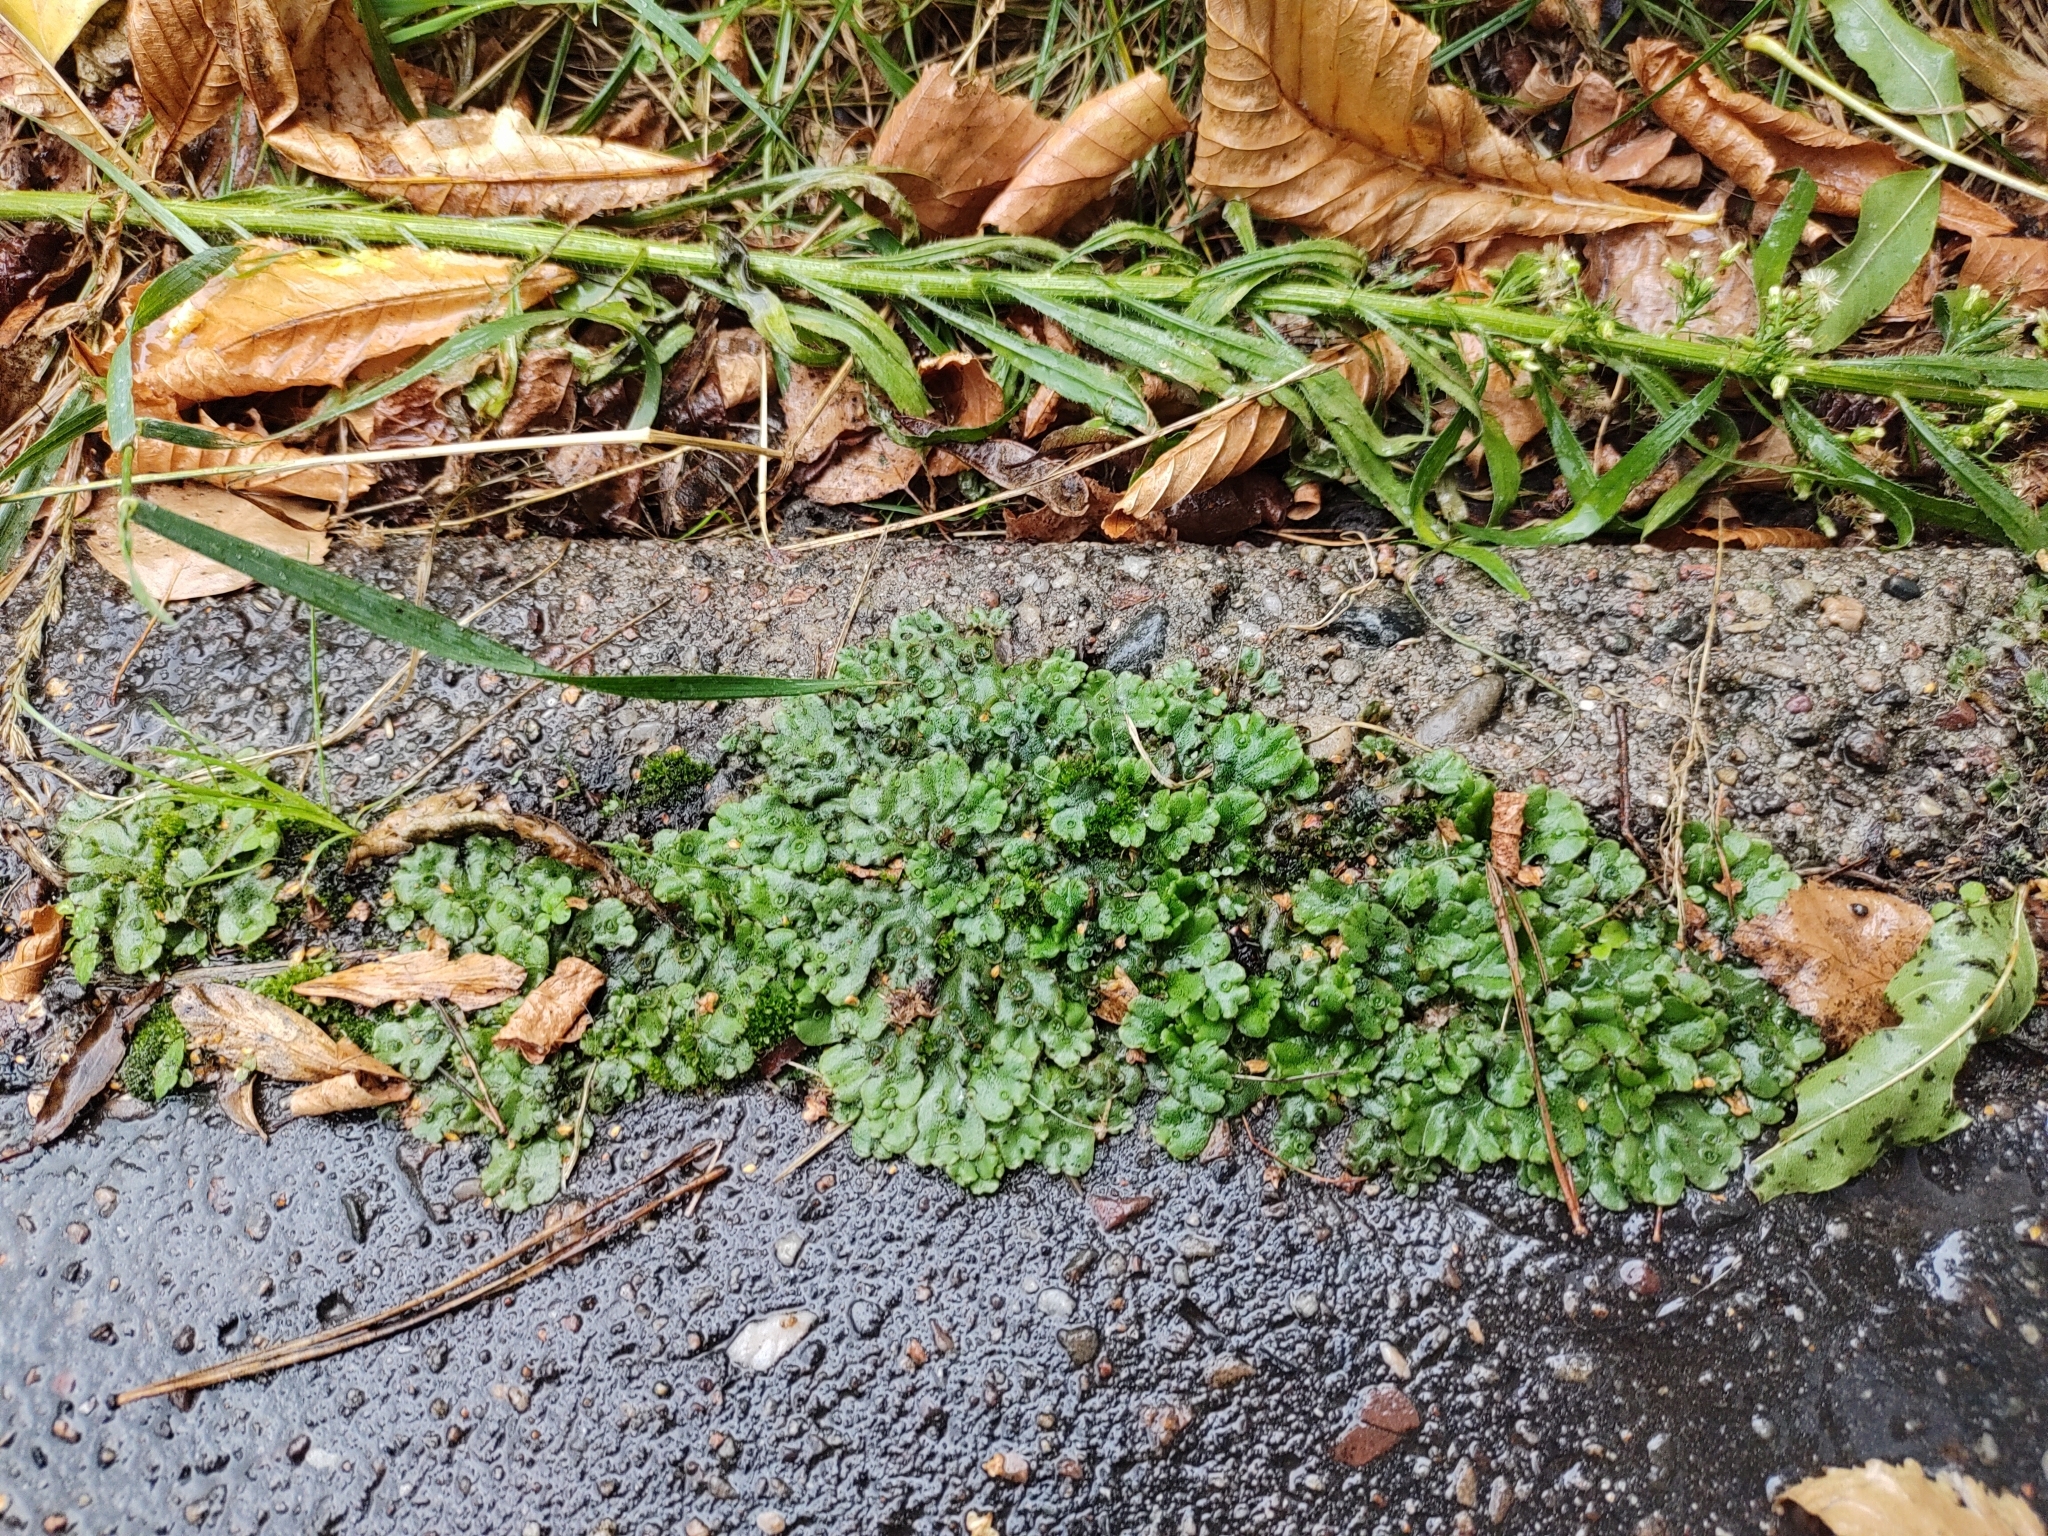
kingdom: Plantae
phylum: Marchantiophyta
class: Marchantiopsida
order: Marchantiales
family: Marchantiaceae
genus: Marchantia
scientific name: Marchantia polymorpha
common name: Common liverwort
